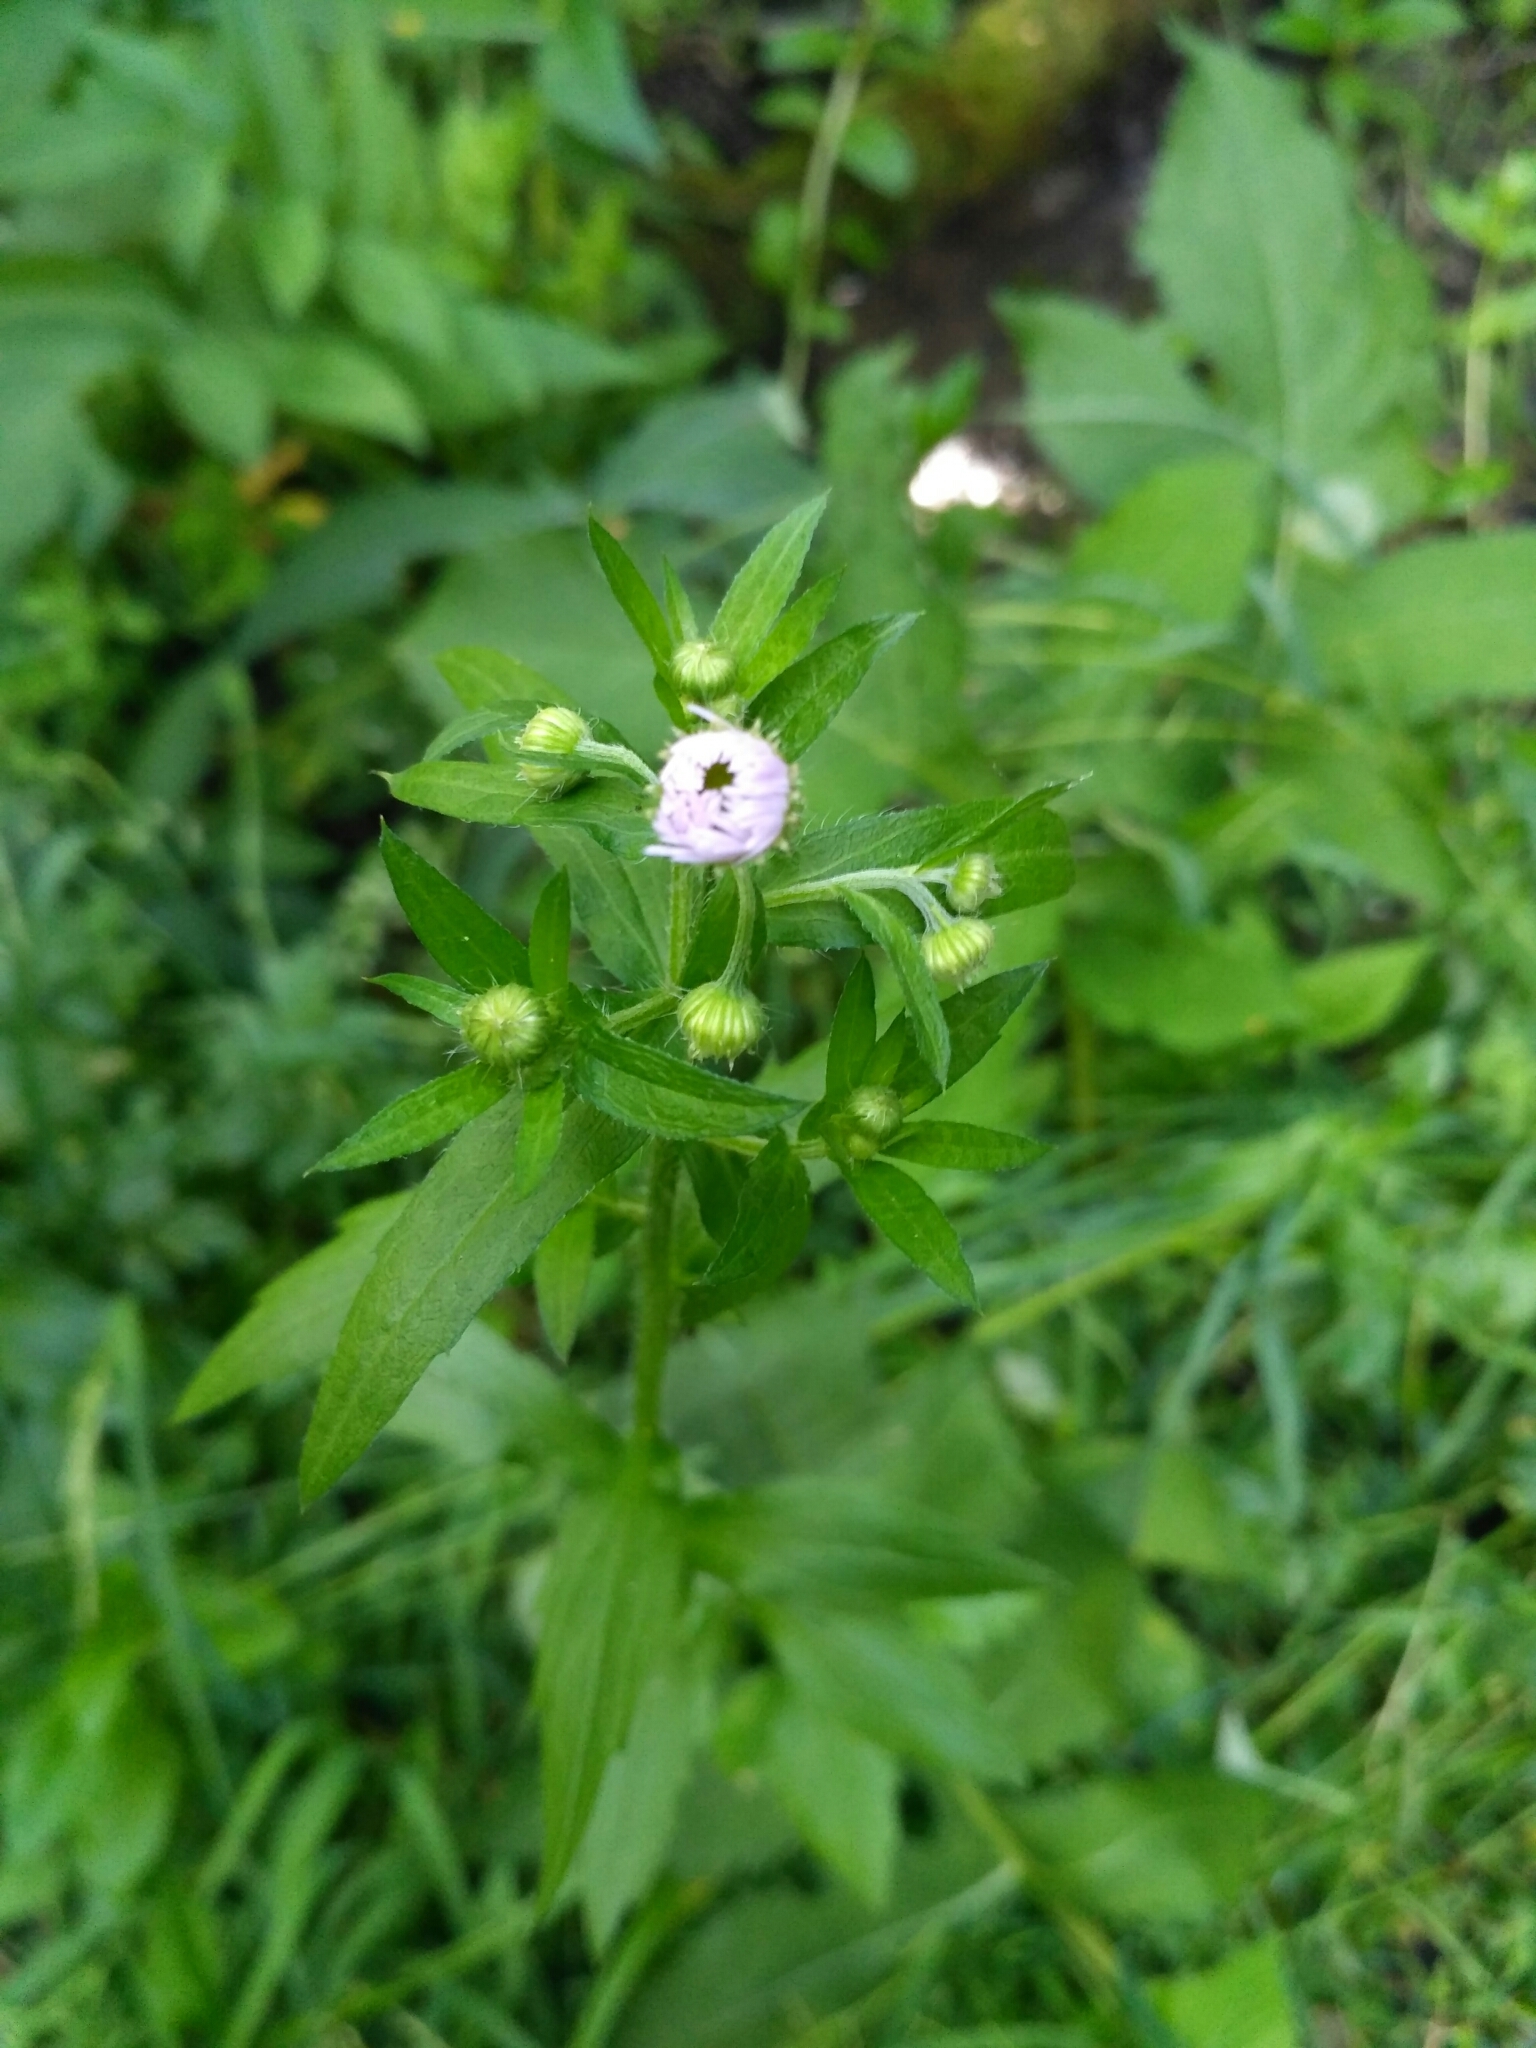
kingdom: Plantae
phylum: Tracheophyta
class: Magnoliopsida
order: Asterales
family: Asteraceae
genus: Erigeron
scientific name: Erigeron annuus
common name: Tall fleabane
